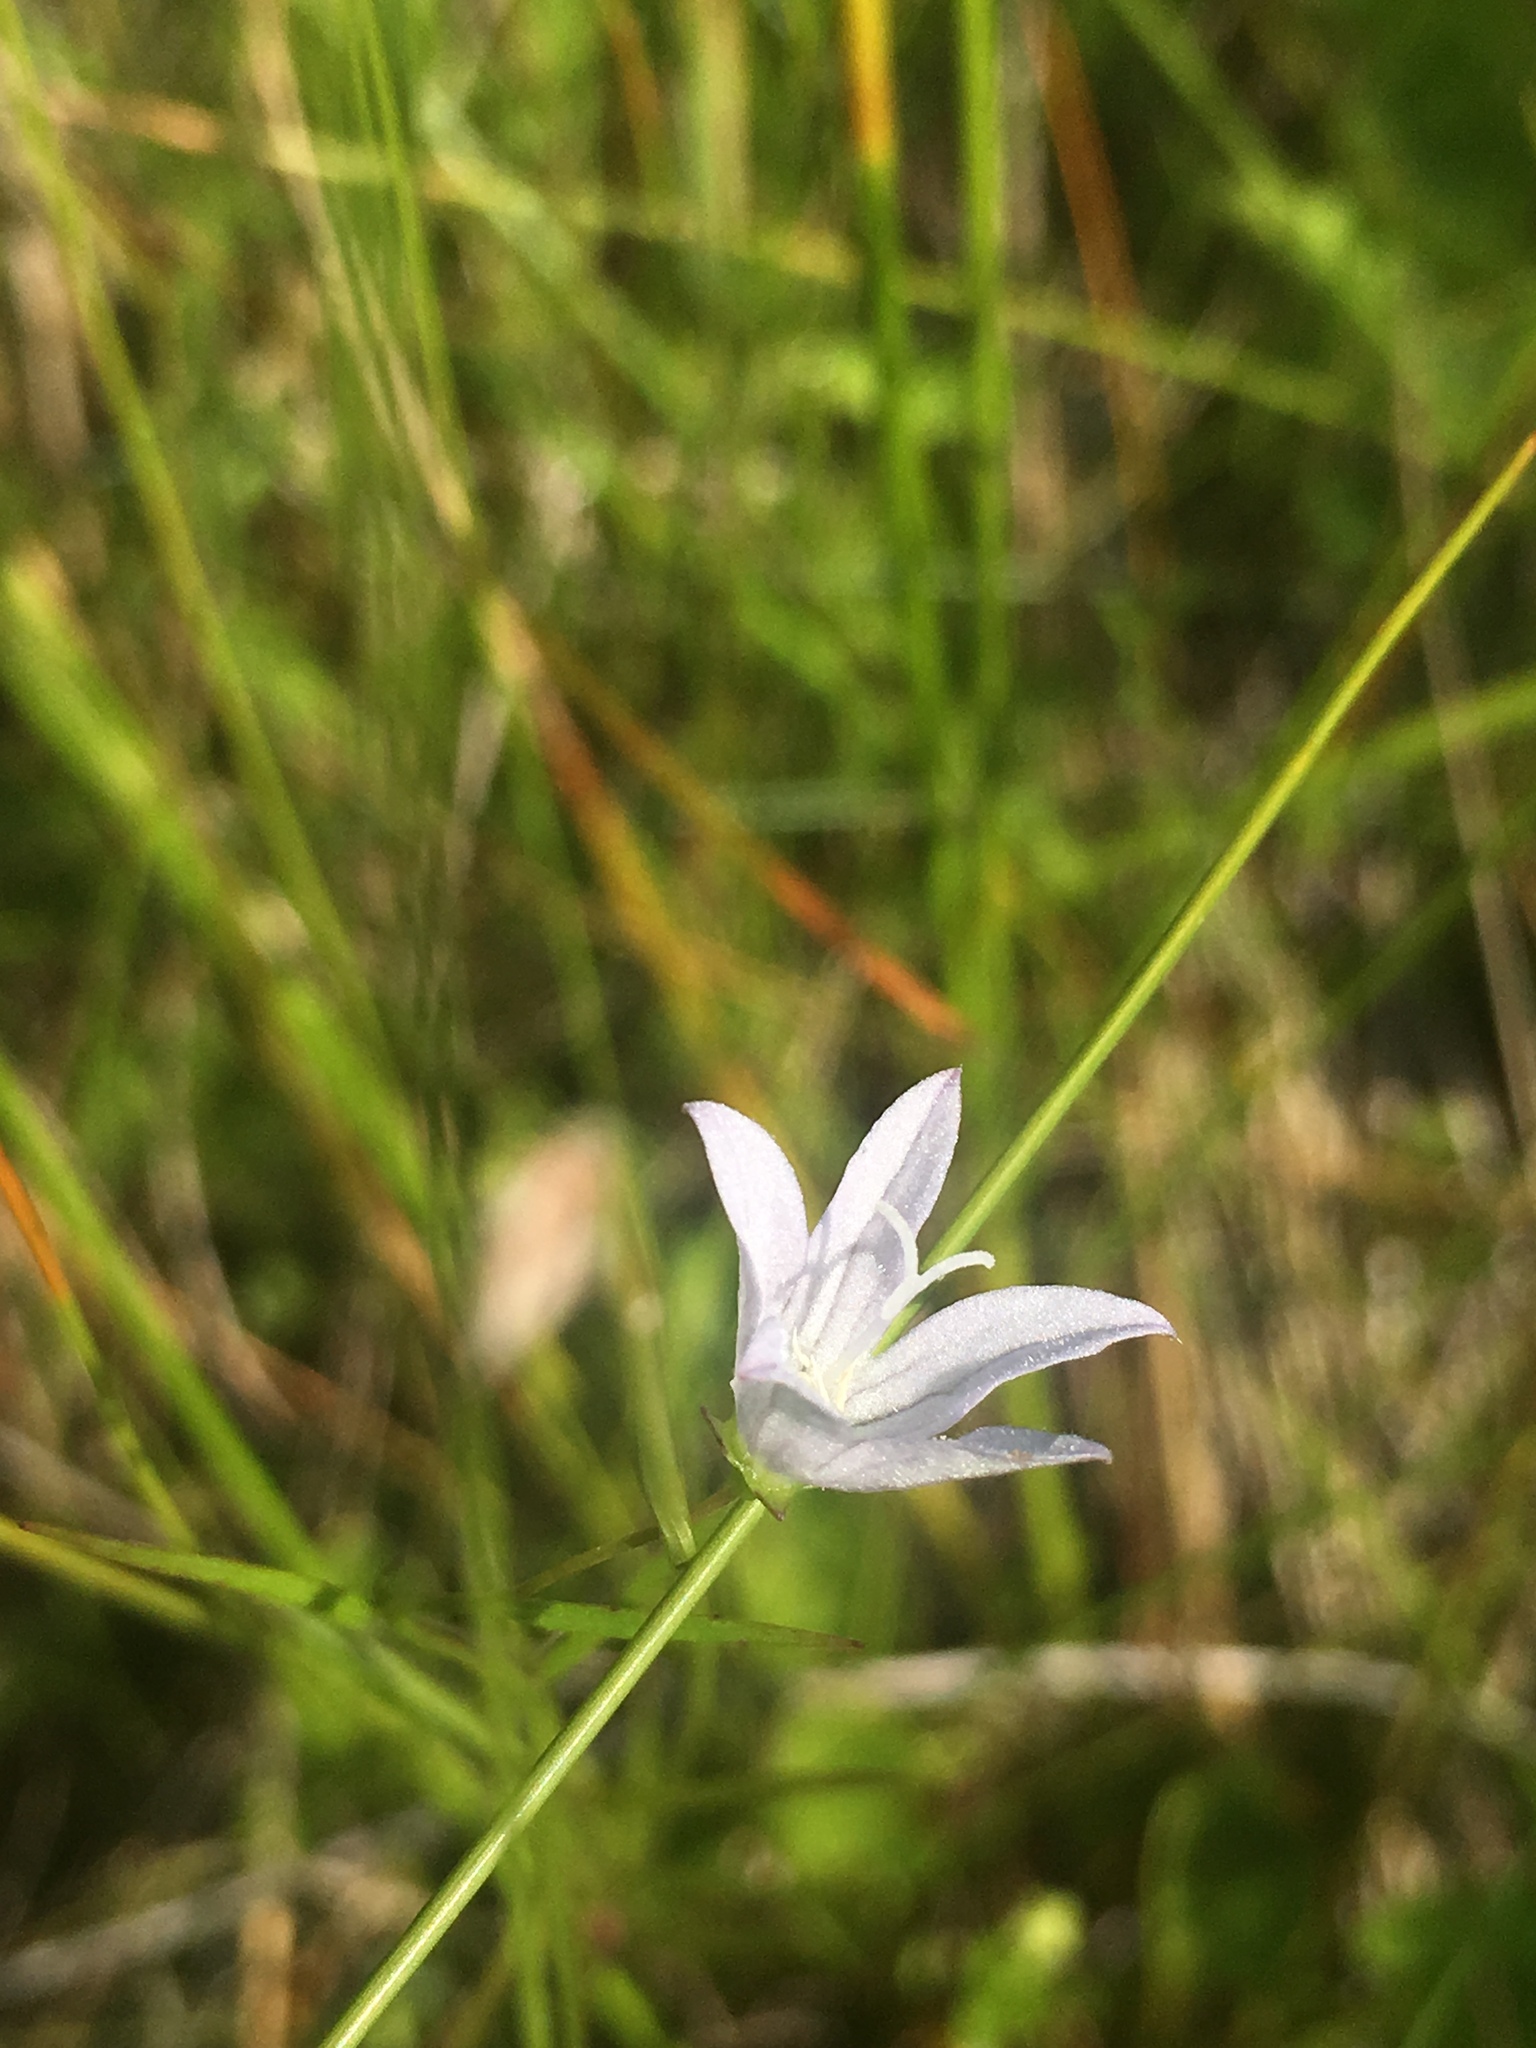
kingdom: Plantae
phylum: Tracheophyta
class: Magnoliopsida
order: Asterales
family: Campanulaceae
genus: Palustricodon
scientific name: Palustricodon aparinoides
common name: Bedstraw bellflower
